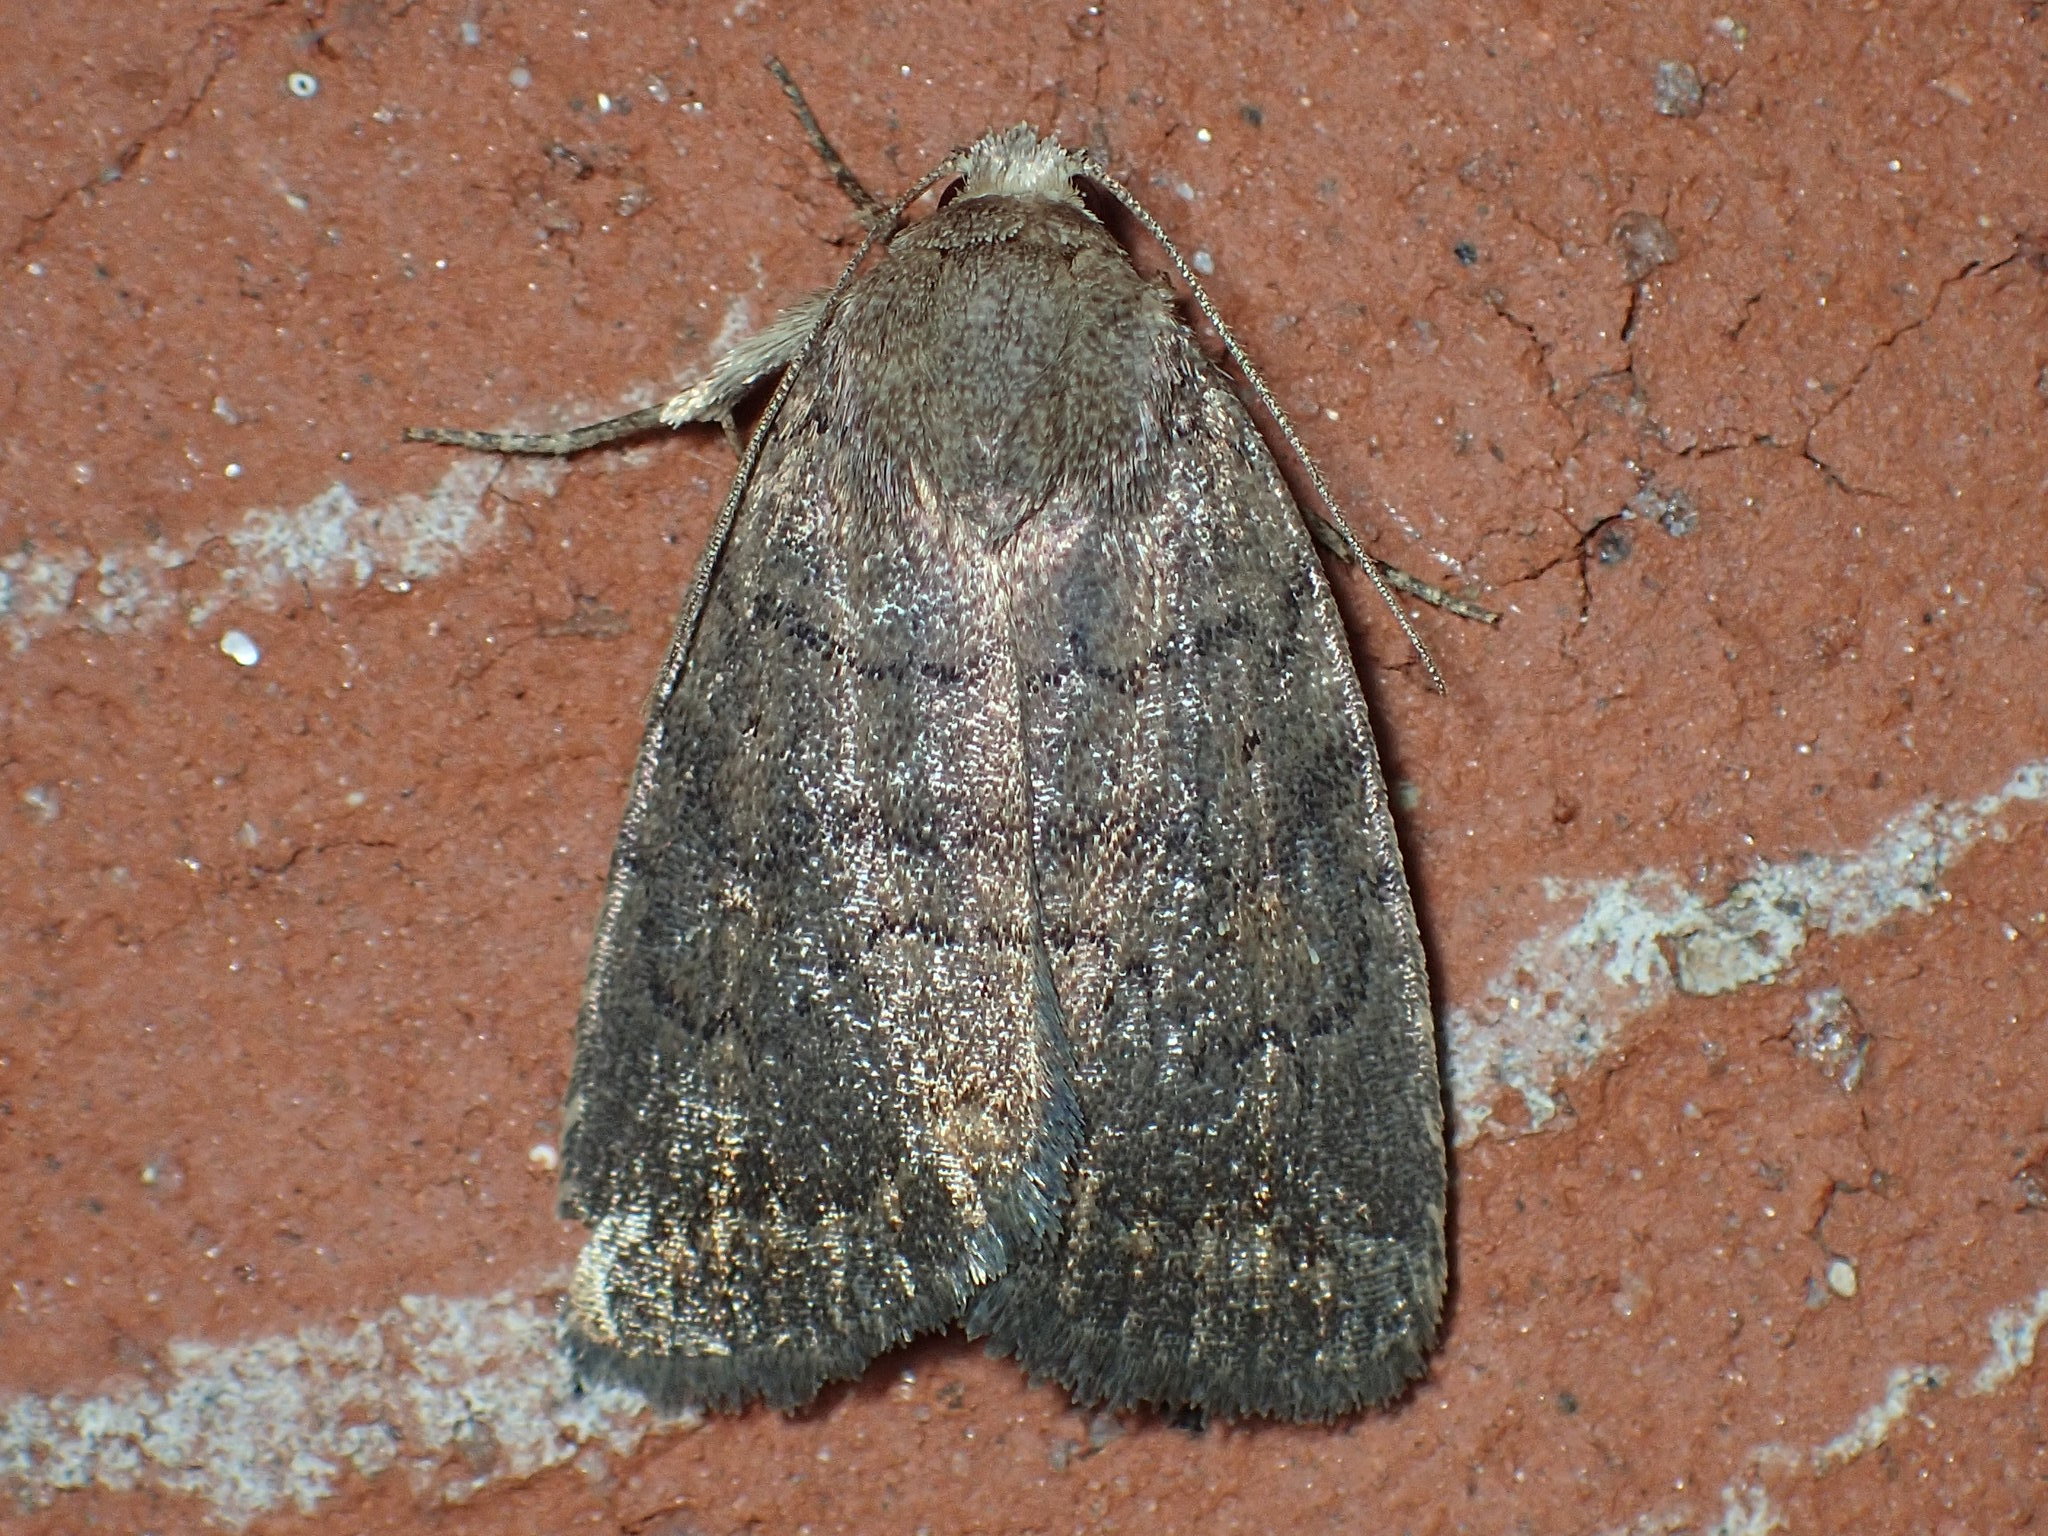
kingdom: Animalia
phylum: Arthropoda
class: Insecta
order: Lepidoptera
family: Noctuidae
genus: Athetis
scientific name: Athetis tarda
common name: Slowpoke moth
